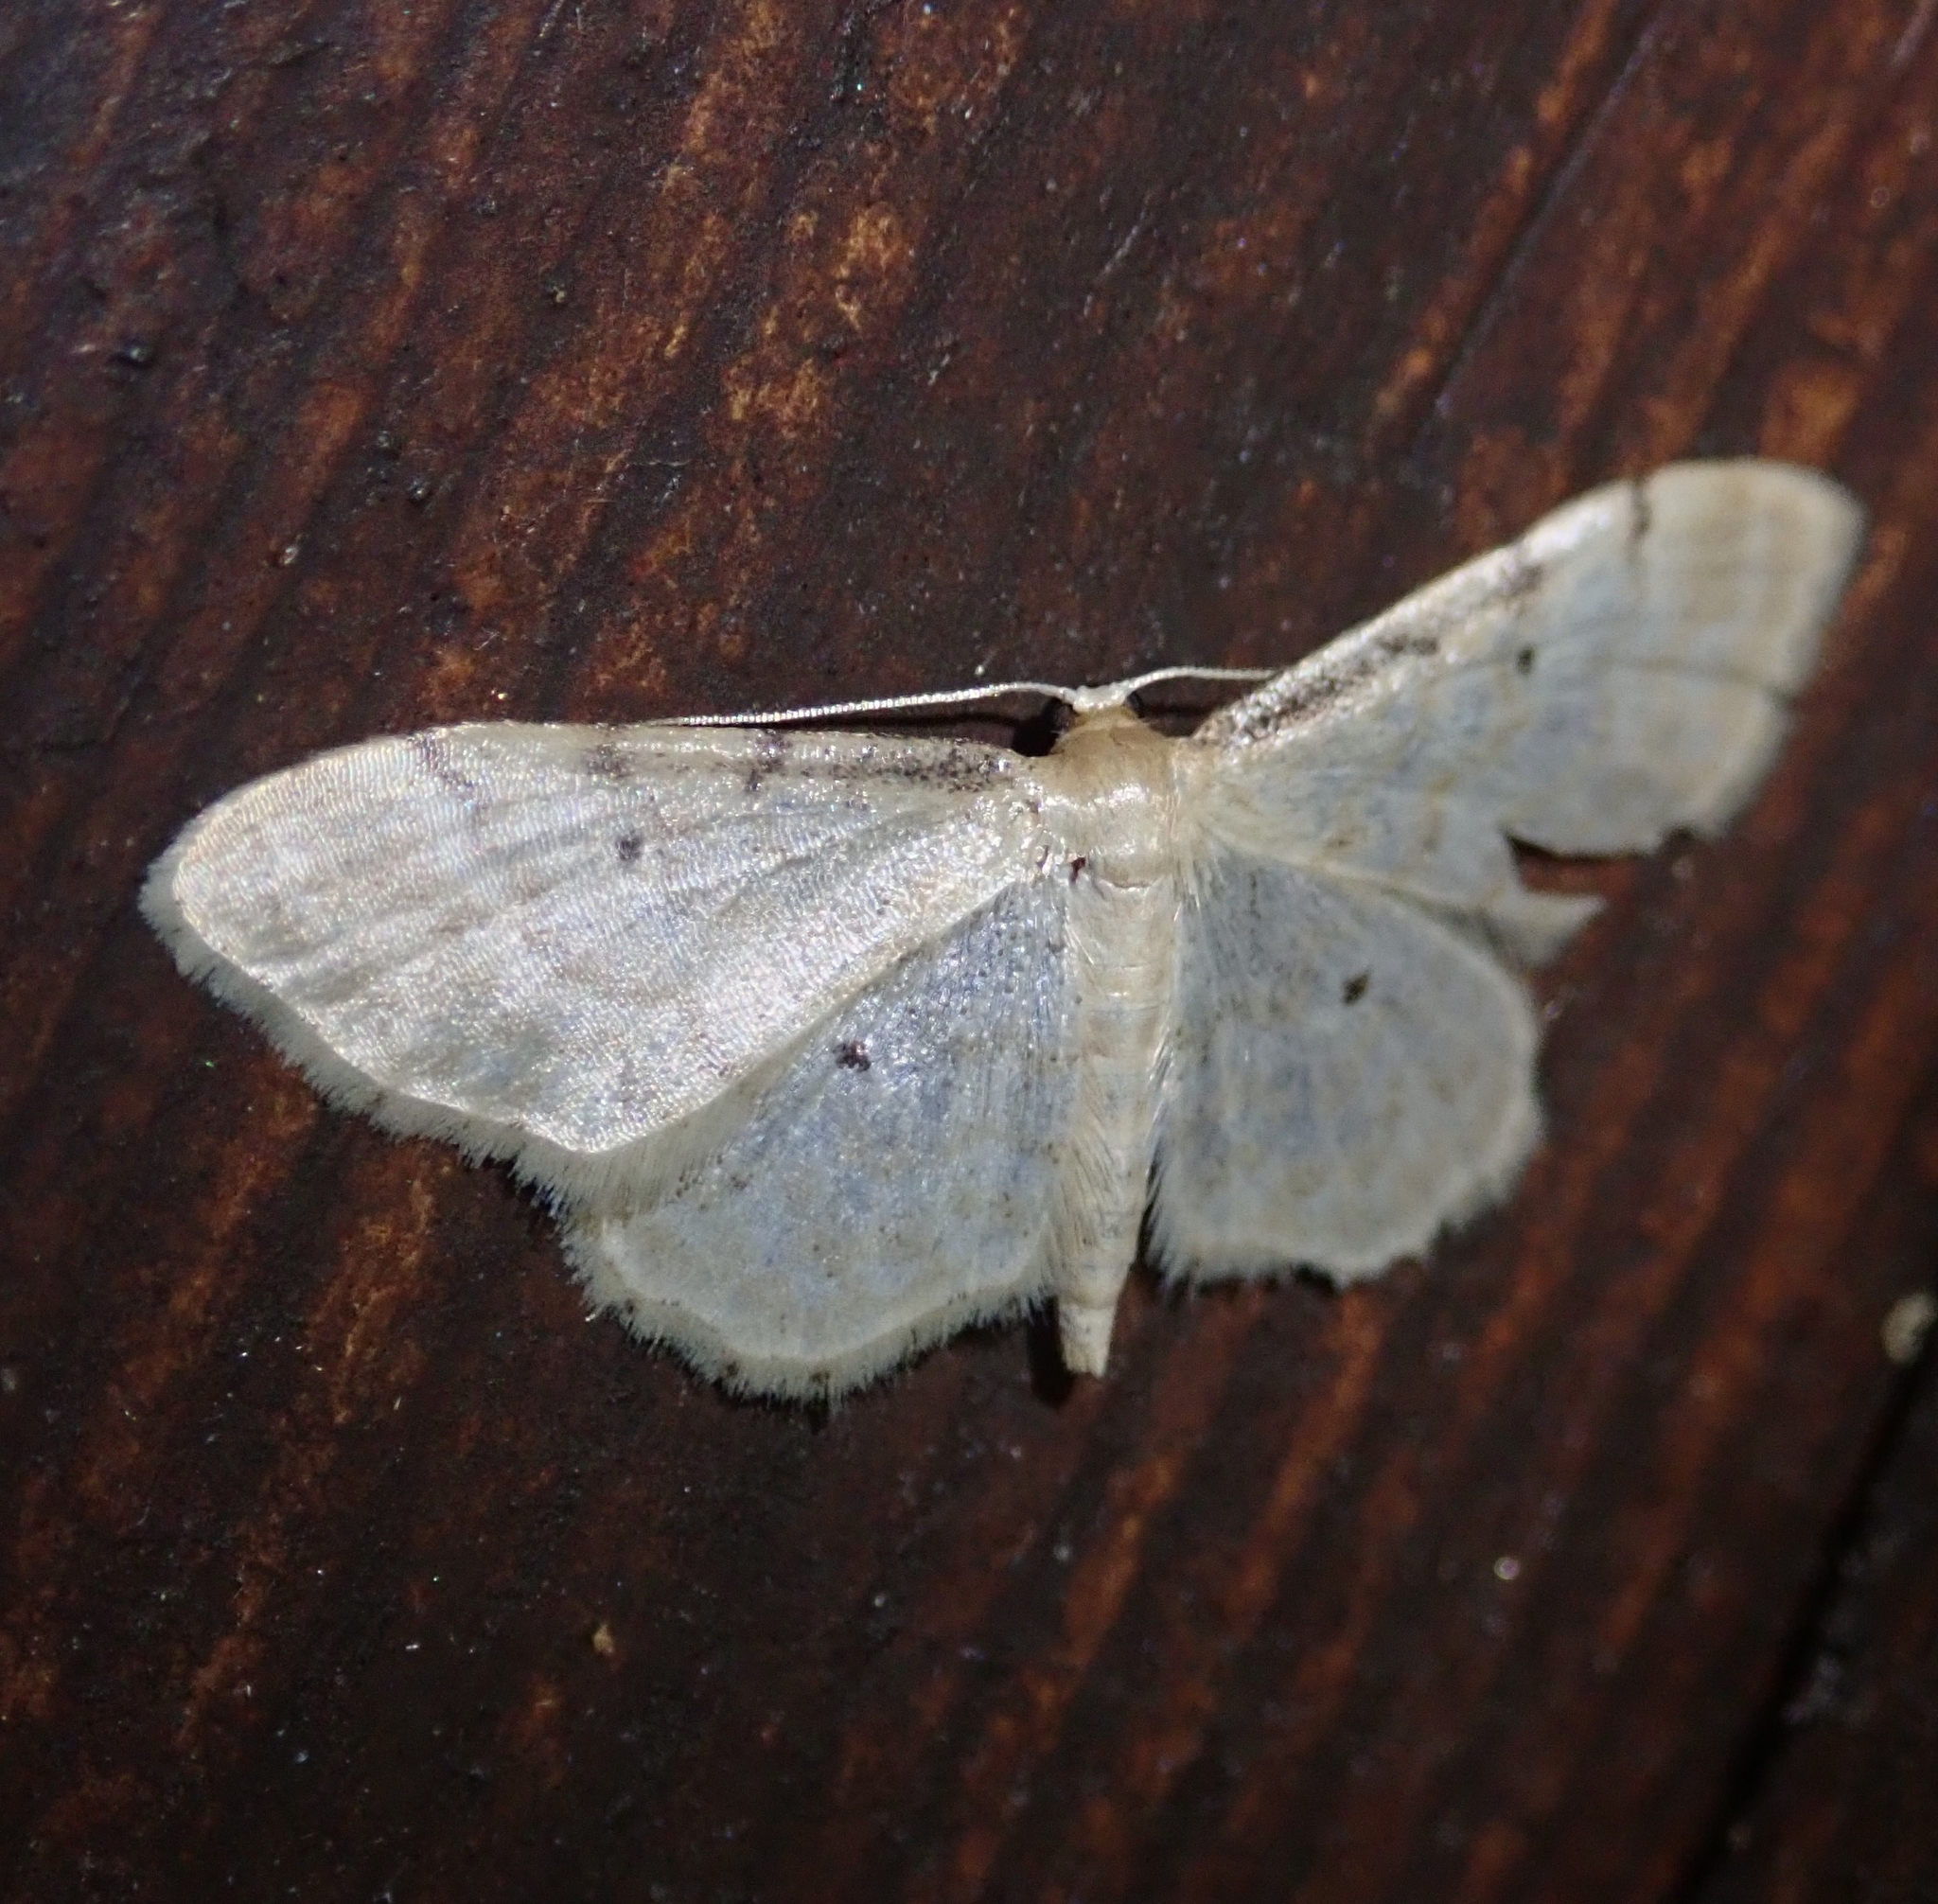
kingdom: Animalia
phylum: Arthropoda
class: Insecta
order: Lepidoptera
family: Geometridae
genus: Idaea
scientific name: Idaea fuscovenosa
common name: Dwarf cream wave
